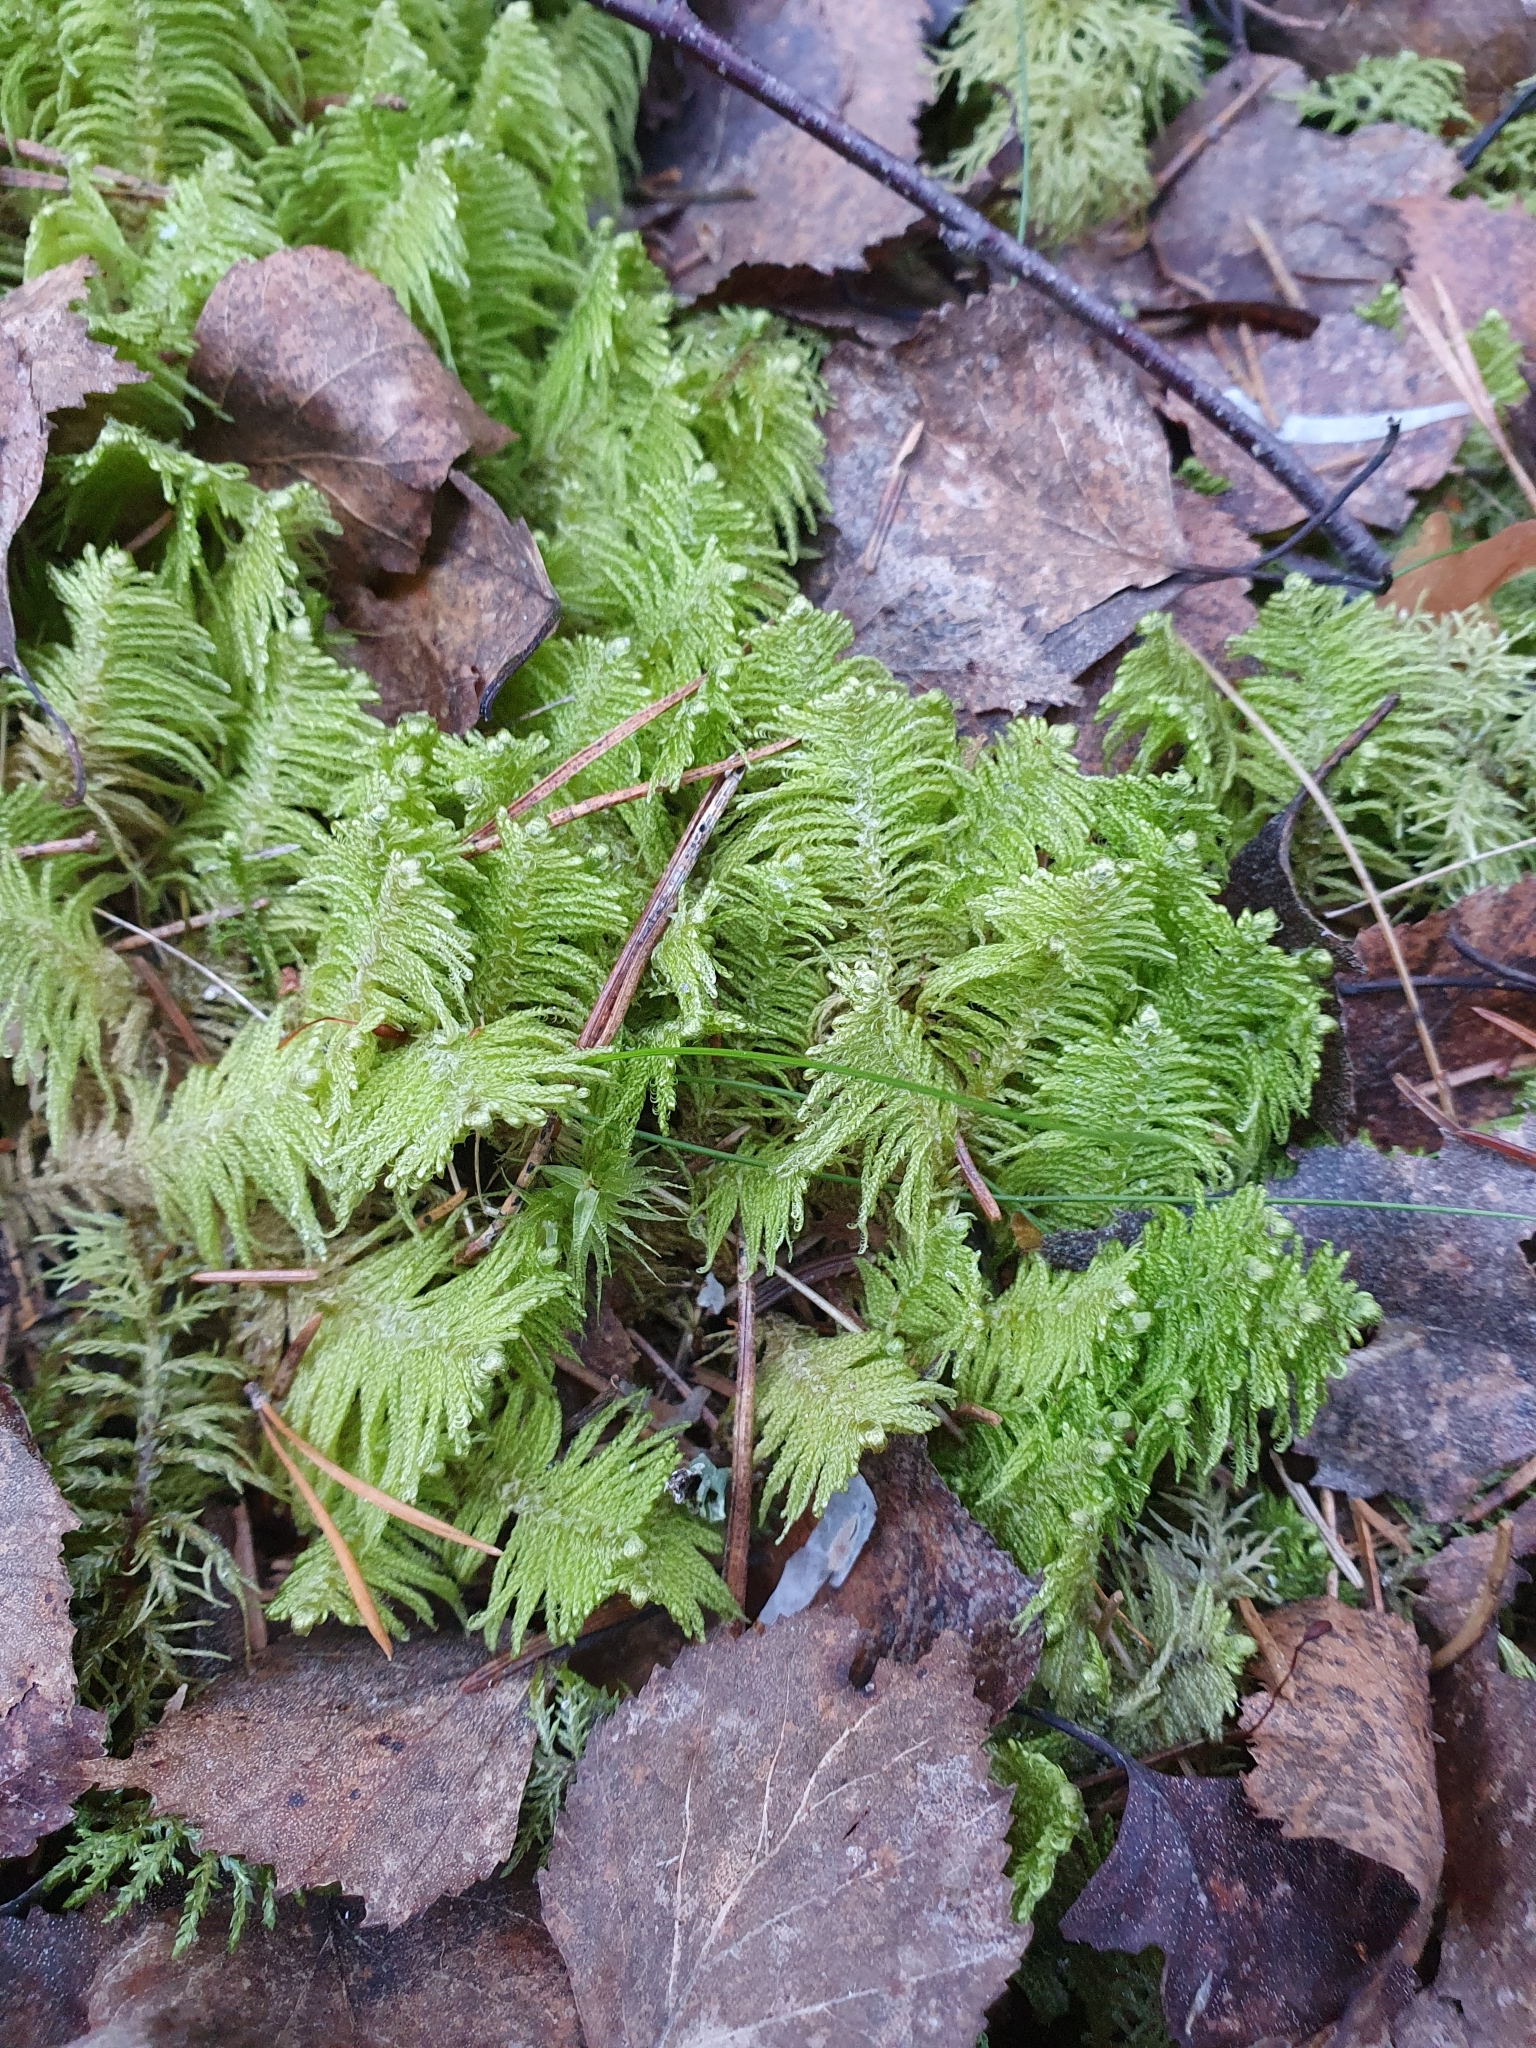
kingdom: Plantae
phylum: Bryophyta
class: Bryopsida
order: Hypnales
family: Pylaisiaceae
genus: Ptilium
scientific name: Ptilium crista-castrensis
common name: Knight's plume moss
